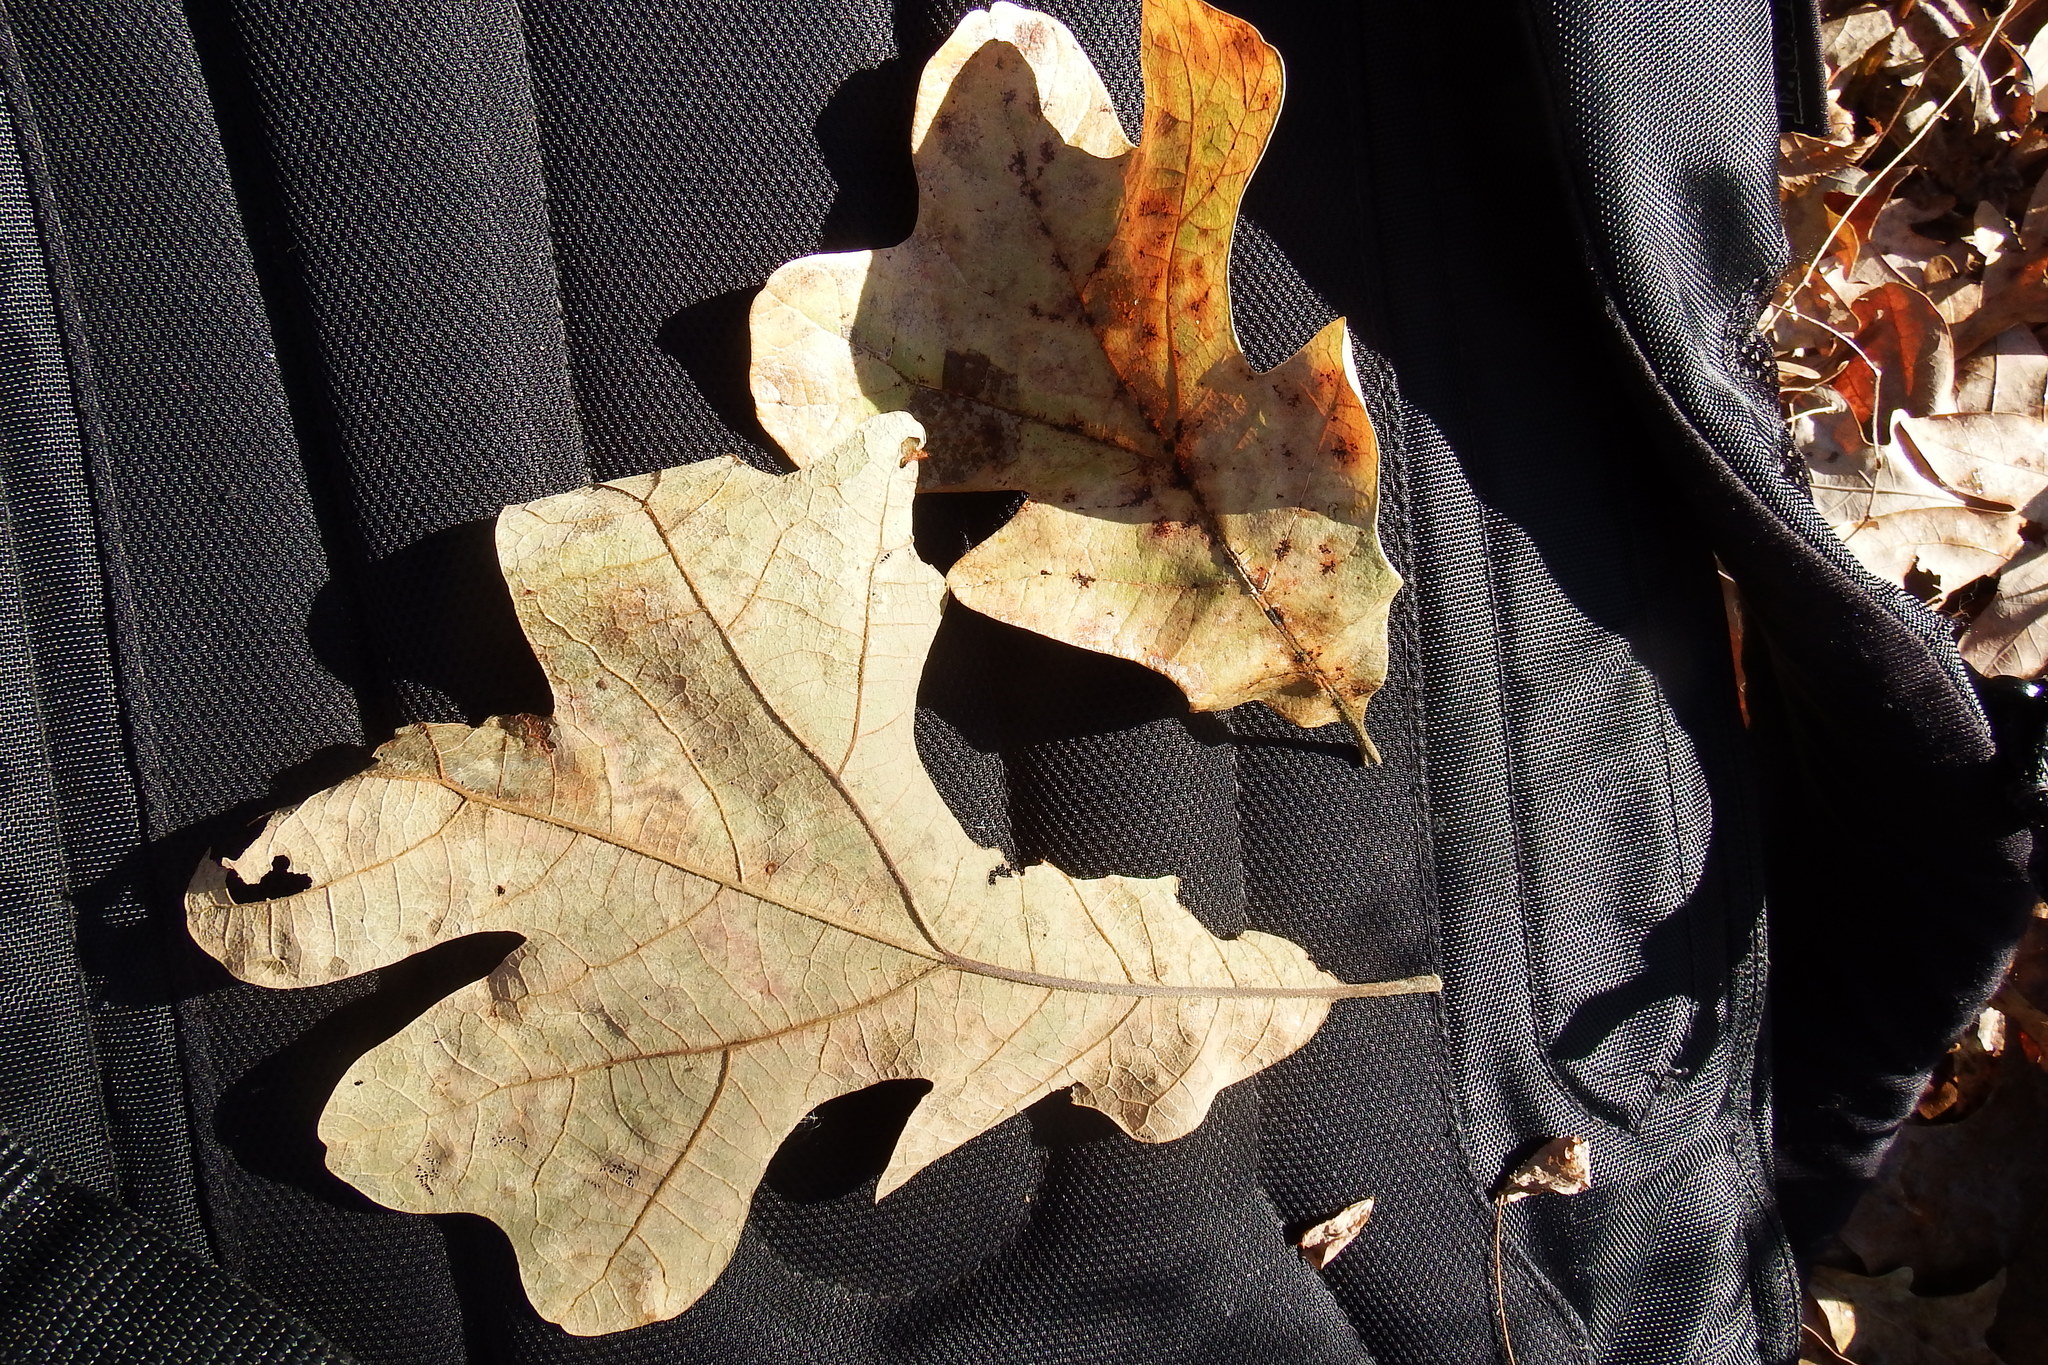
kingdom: Plantae
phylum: Tracheophyta
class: Magnoliopsida
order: Fagales
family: Fagaceae
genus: Quercus
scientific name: Quercus stellata
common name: Post oak
